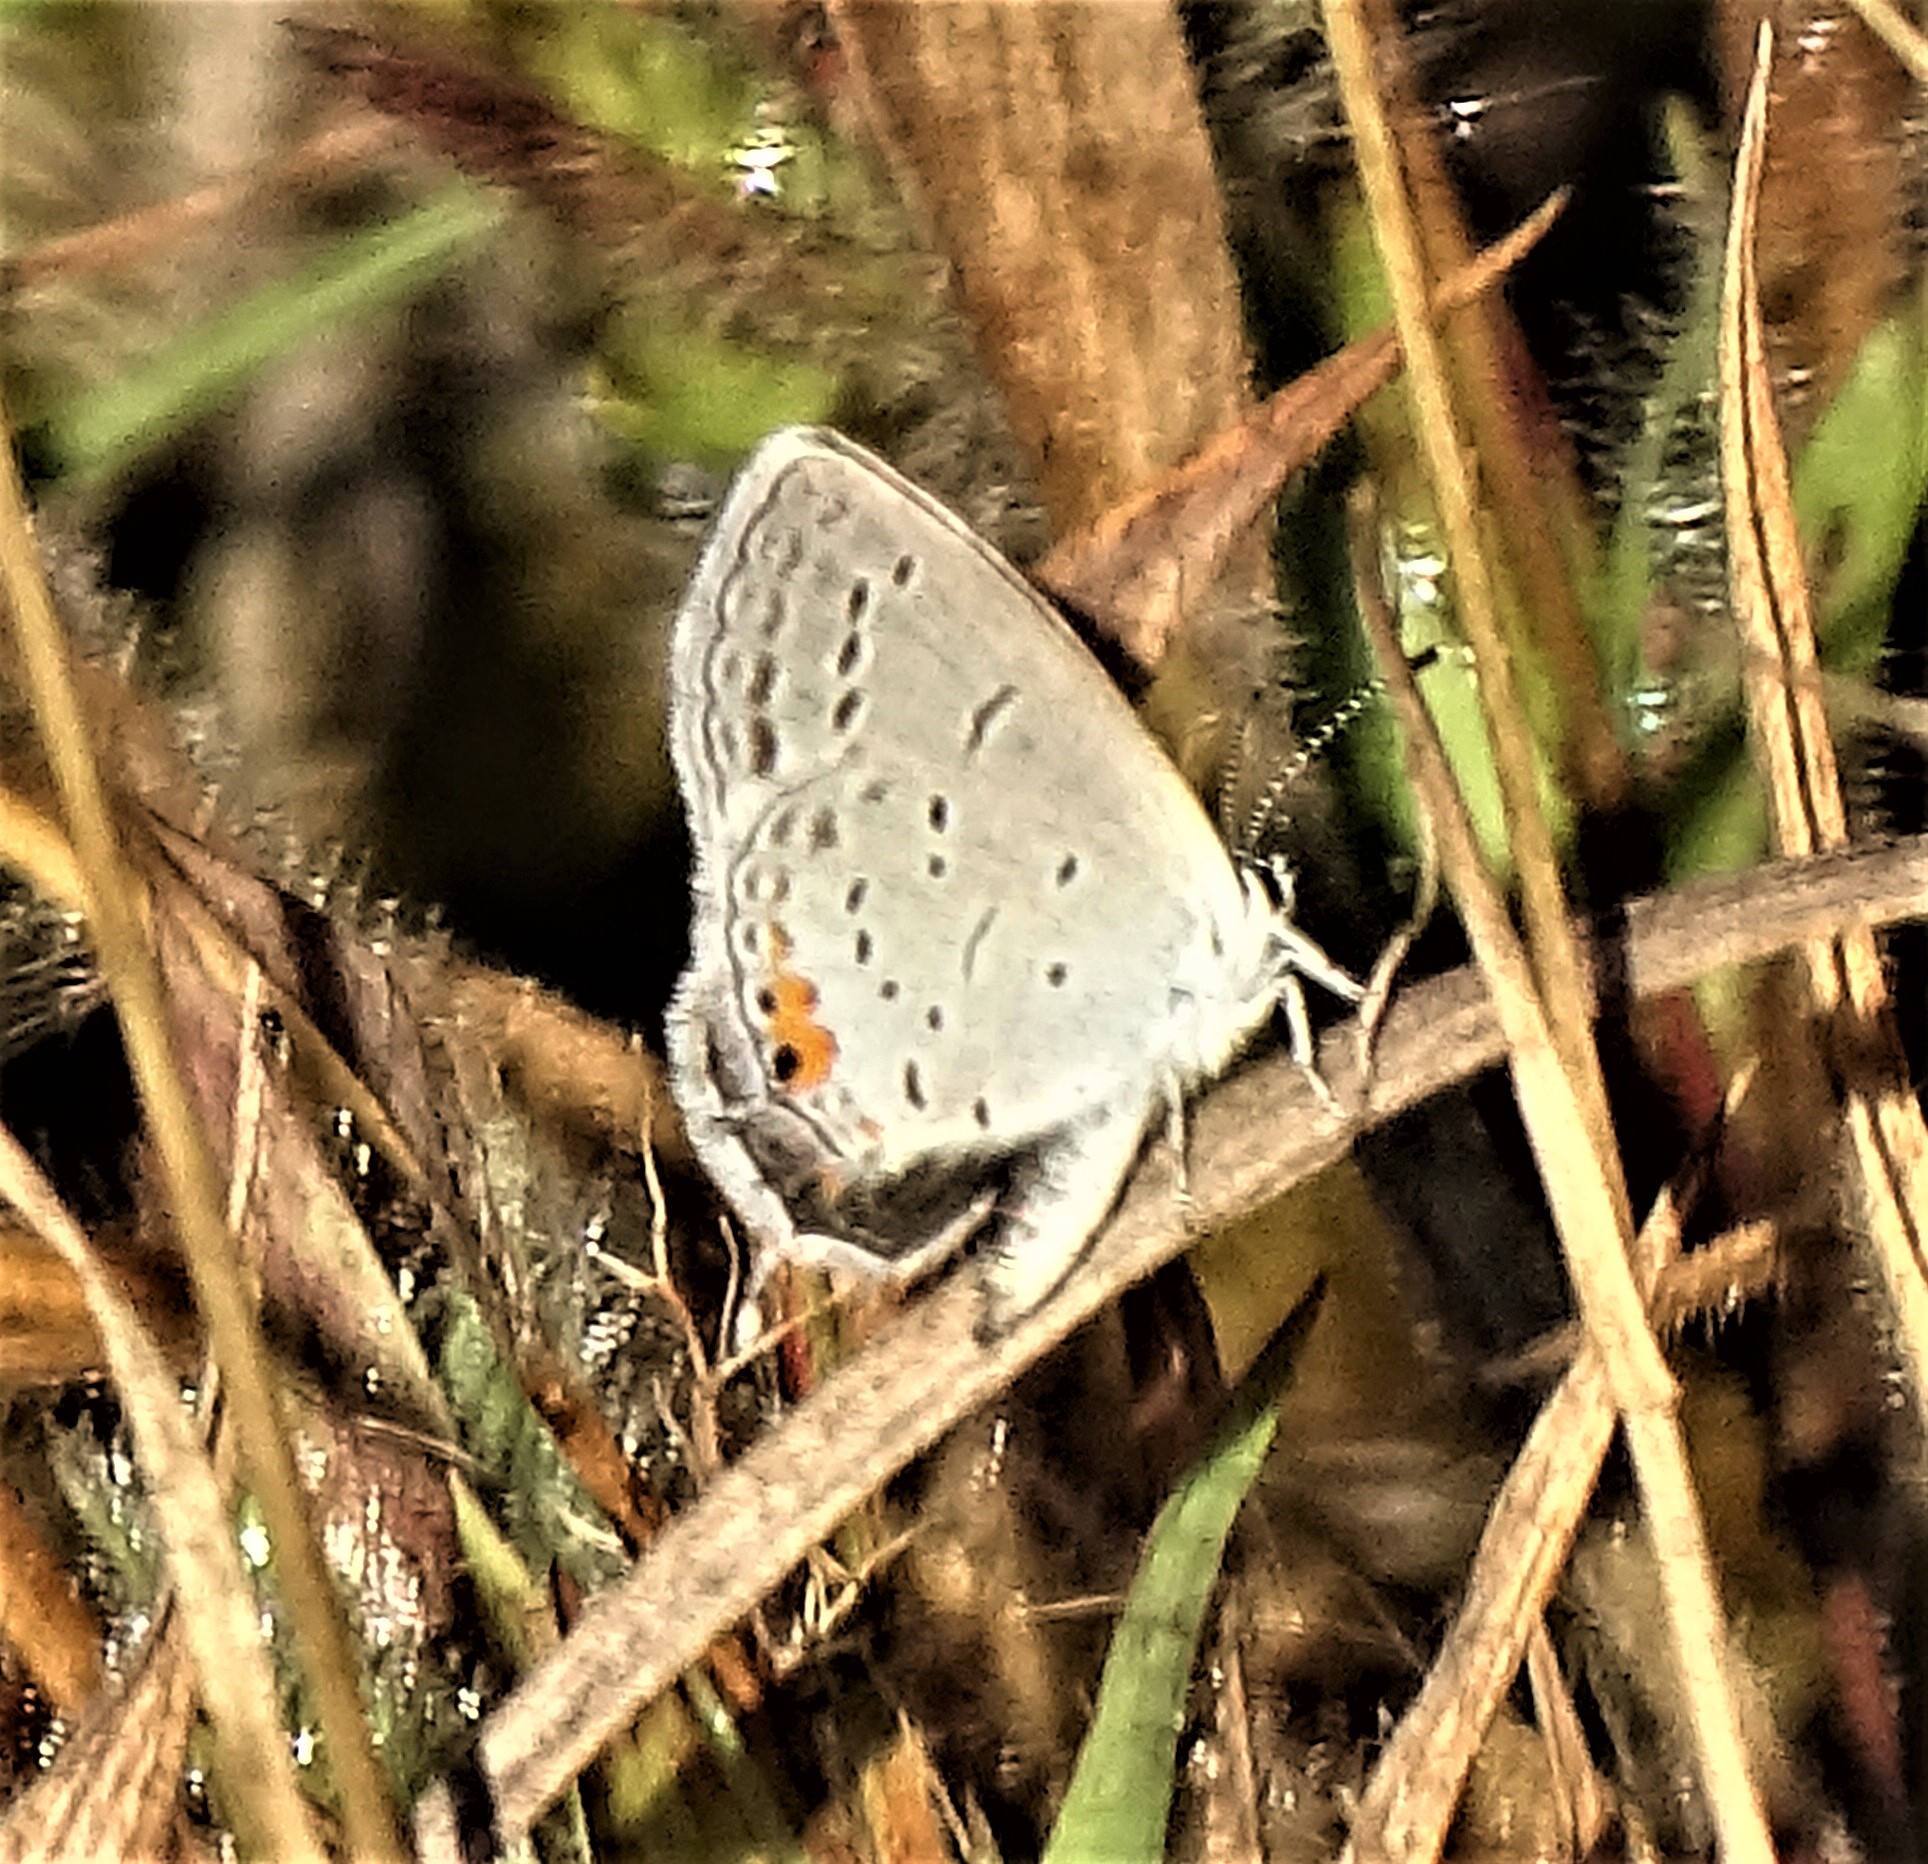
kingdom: Animalia
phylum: Arthropoda
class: Insecta
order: Lepidoptera
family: Lycaenidae
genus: Elkalyce
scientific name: Elkalyce comyntas
